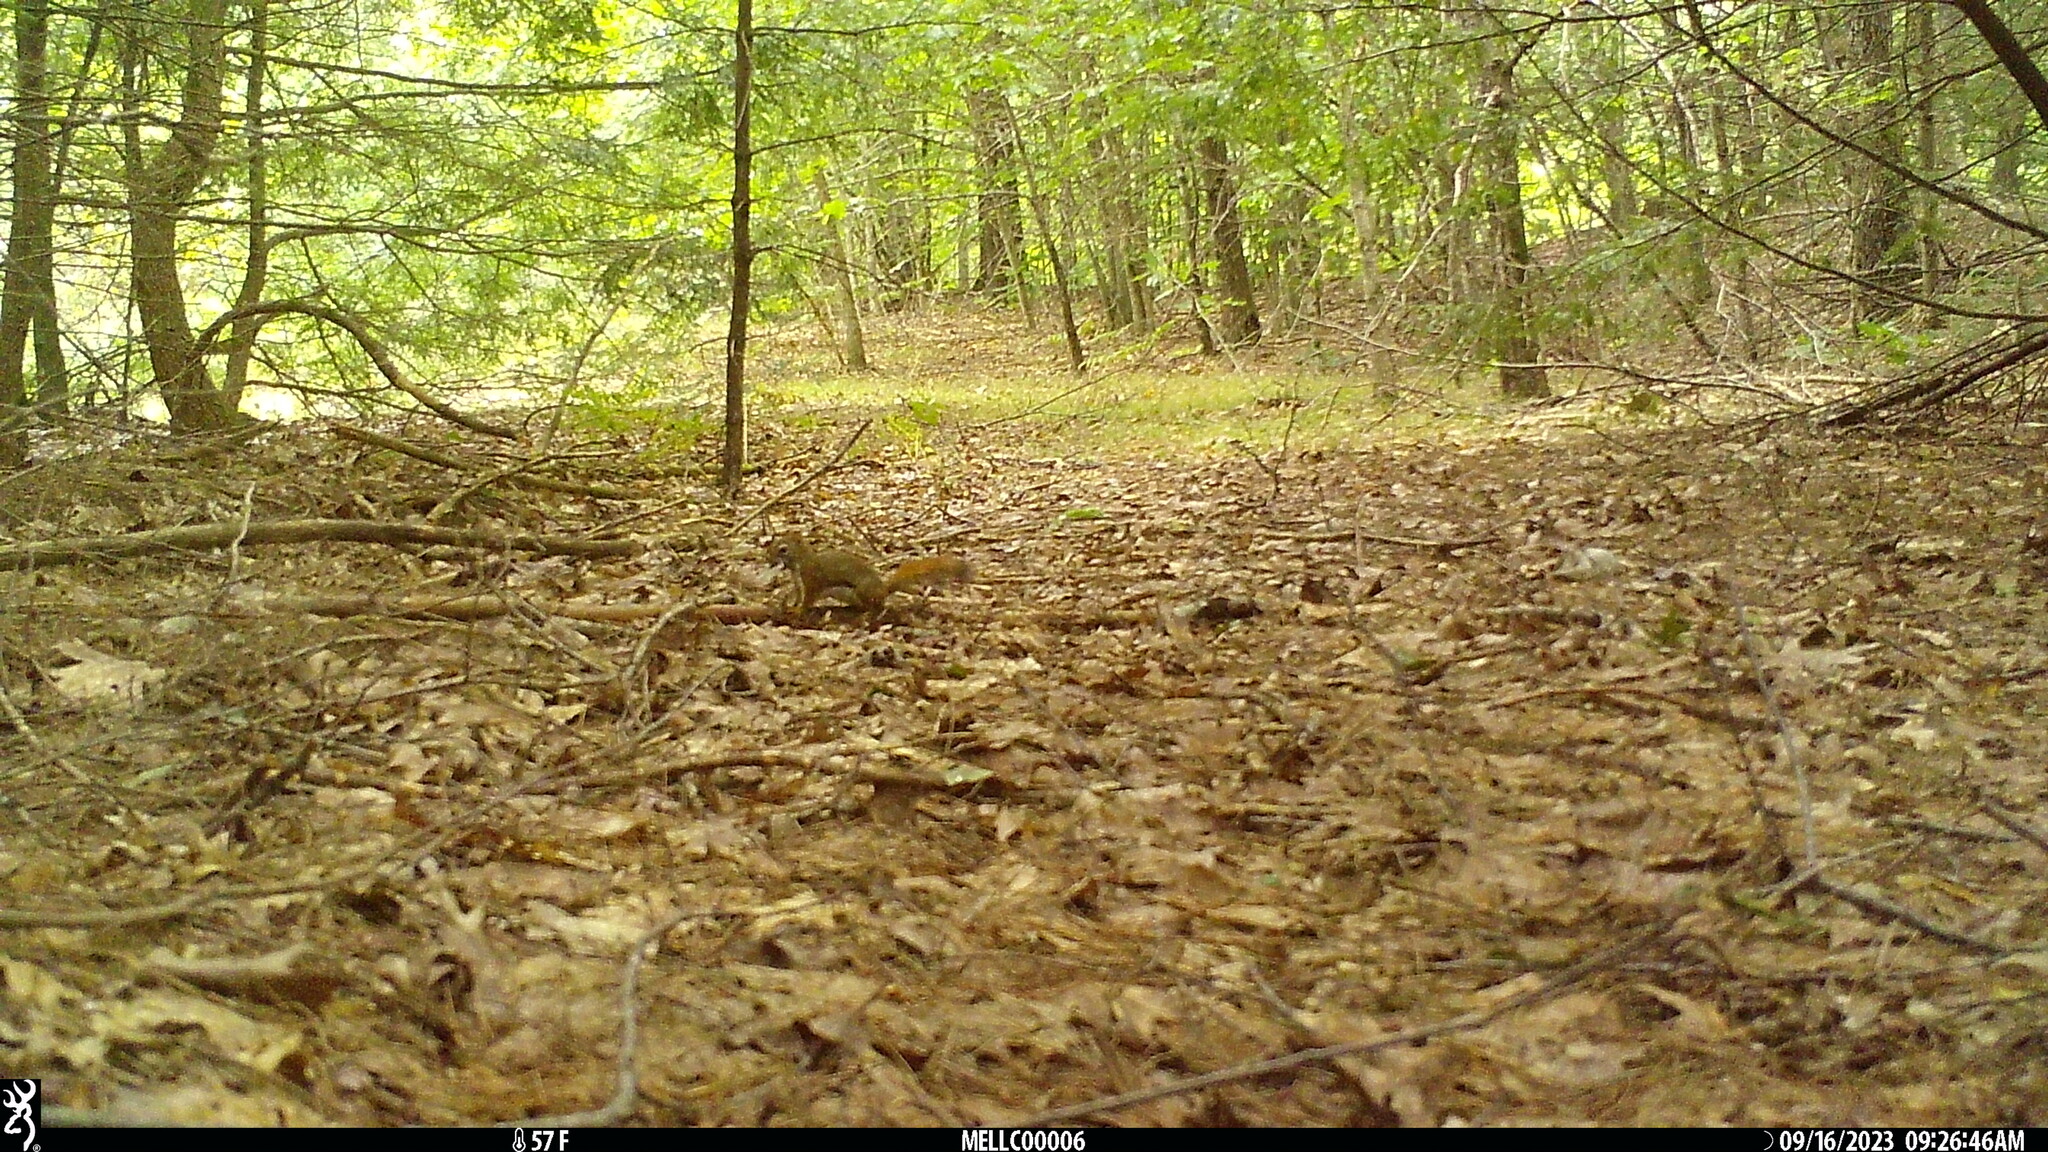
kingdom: Animalia
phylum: Chordata
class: Mammalia
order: Rodentia
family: Sciuridae
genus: Tamiasciurus
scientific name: Tamiasciurus hudsonicus
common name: Red squirrel
